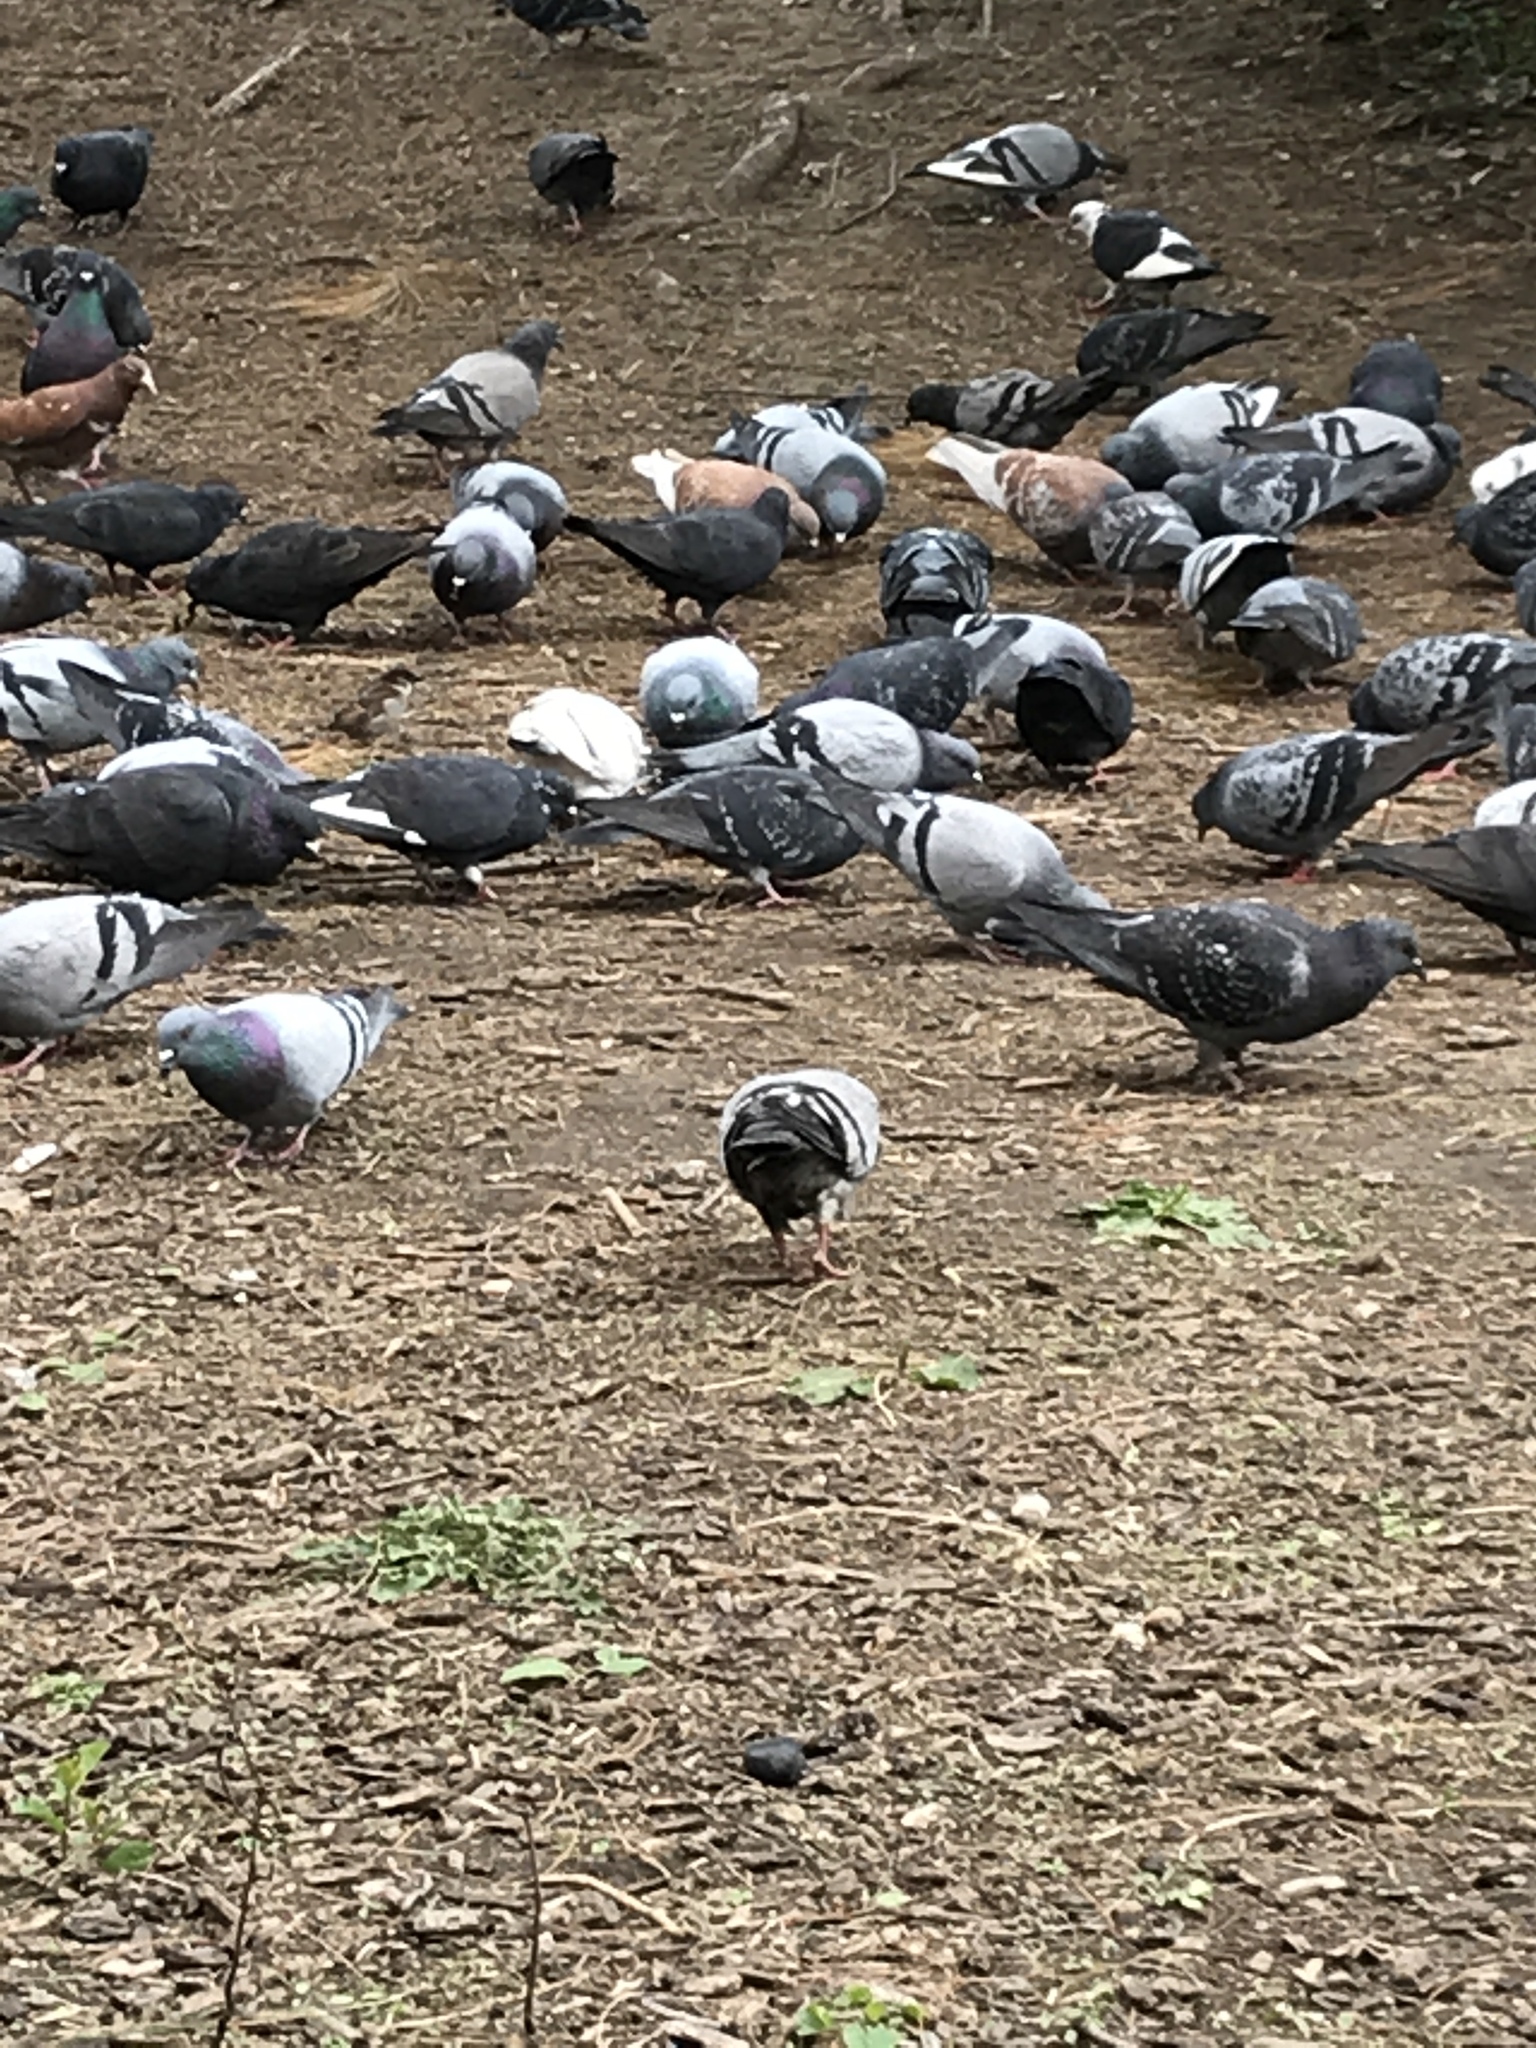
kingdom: Animalia
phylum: Chordata
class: Aves
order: Columbiformes
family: Columbidae
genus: Columba
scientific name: Columba livia
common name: Rock pigeon
